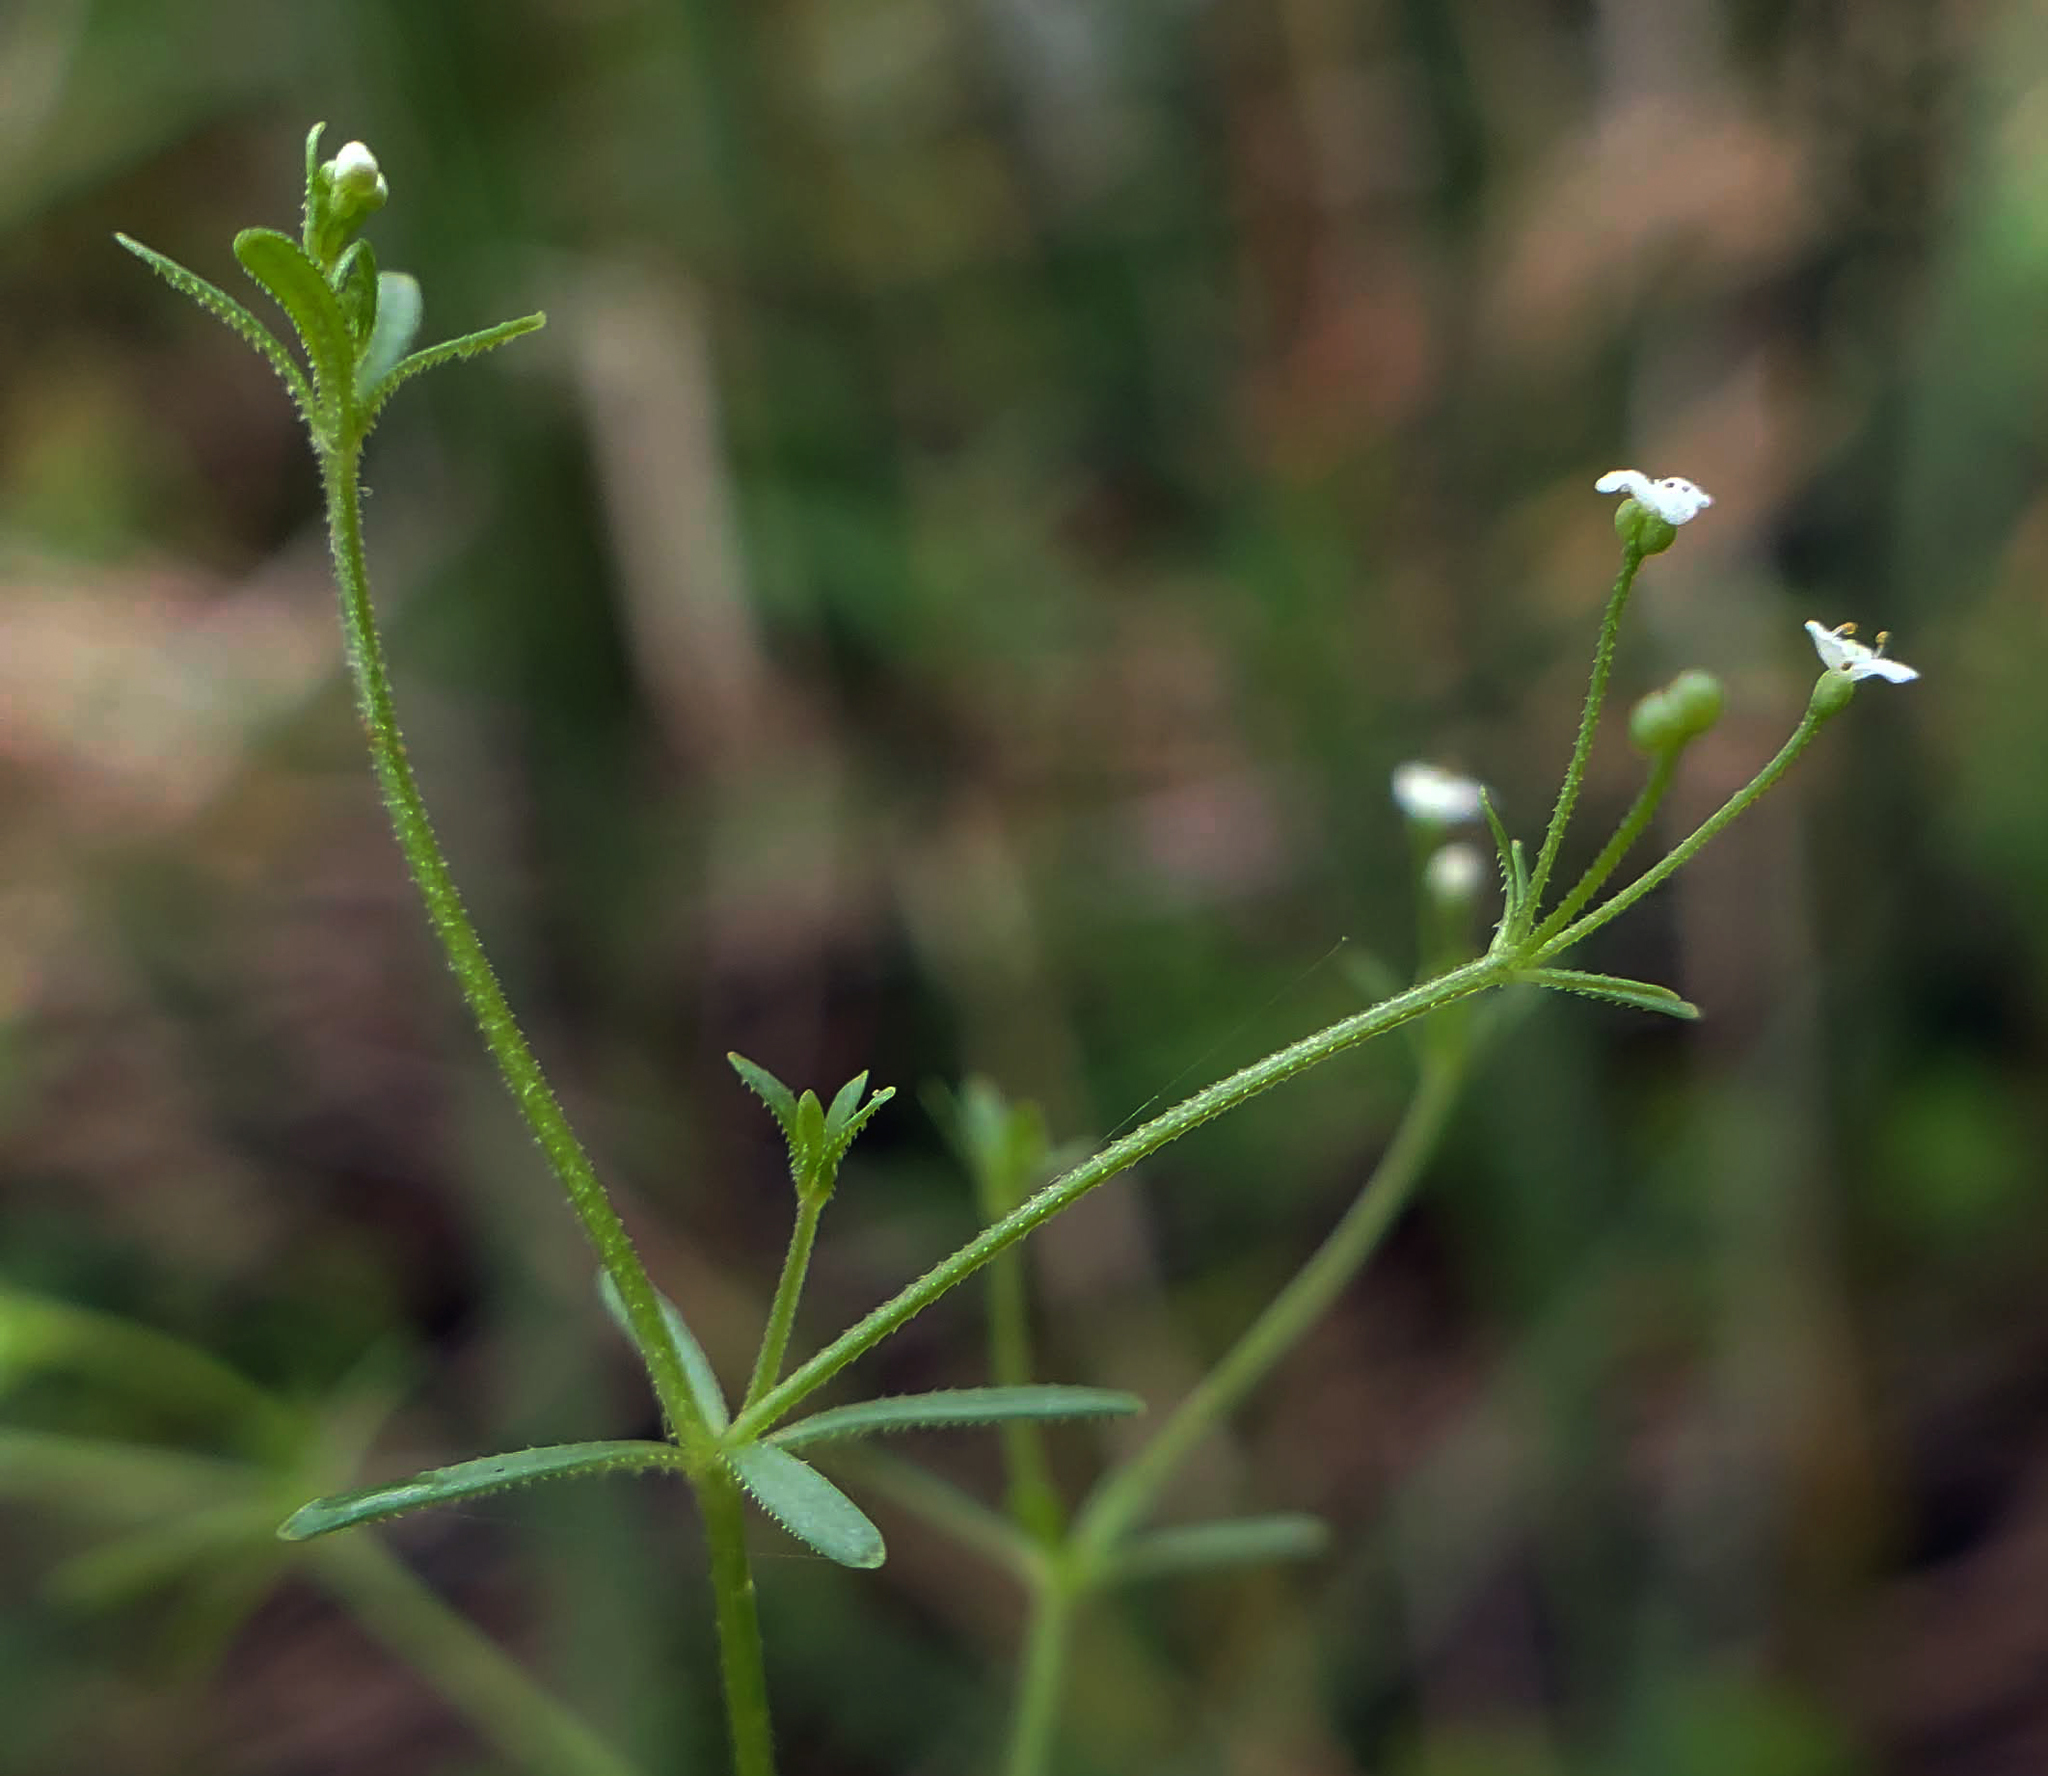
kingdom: Plantae
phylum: Tracheophyta
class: Magnoliopsida
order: Gentianales
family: Rubiaceae
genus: Galium
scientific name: Galium trifidum
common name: Small bedstraw
